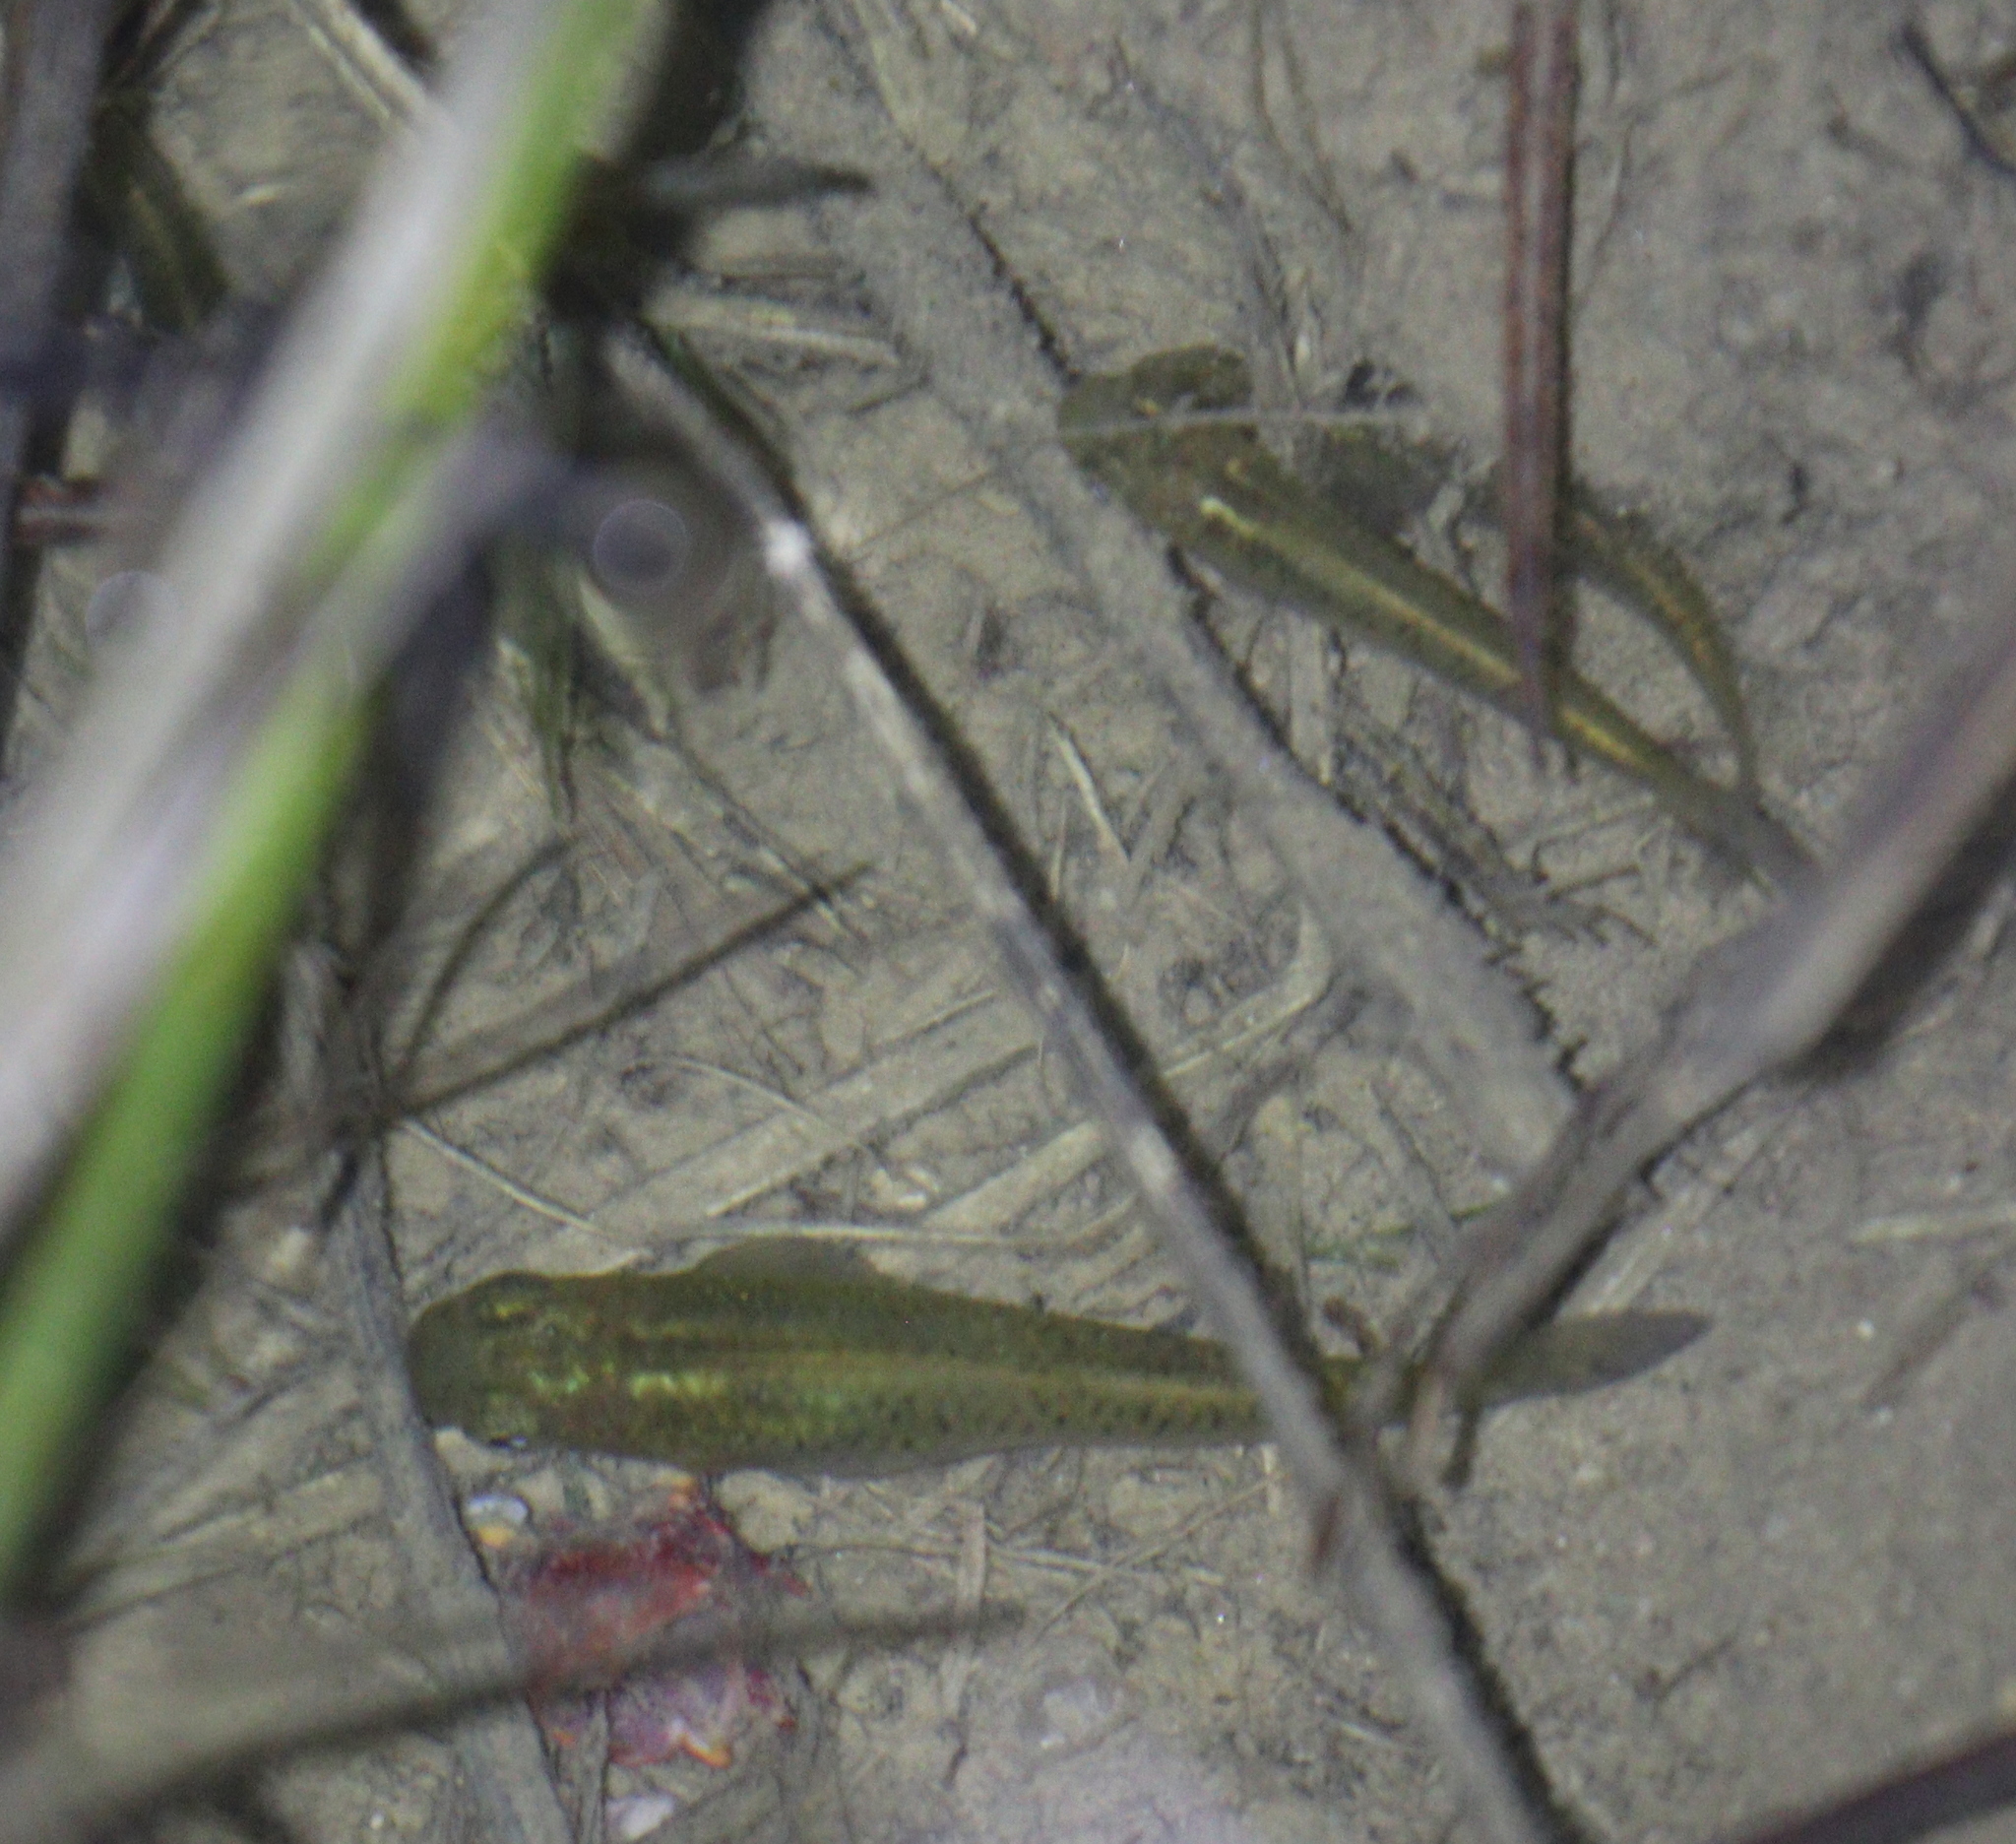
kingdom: Animalia
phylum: Chordata
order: Cyprinodontiformes
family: Poeciliidae
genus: Gambusia
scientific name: Gambusia holbrooki
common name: Eastern mosquitofish
